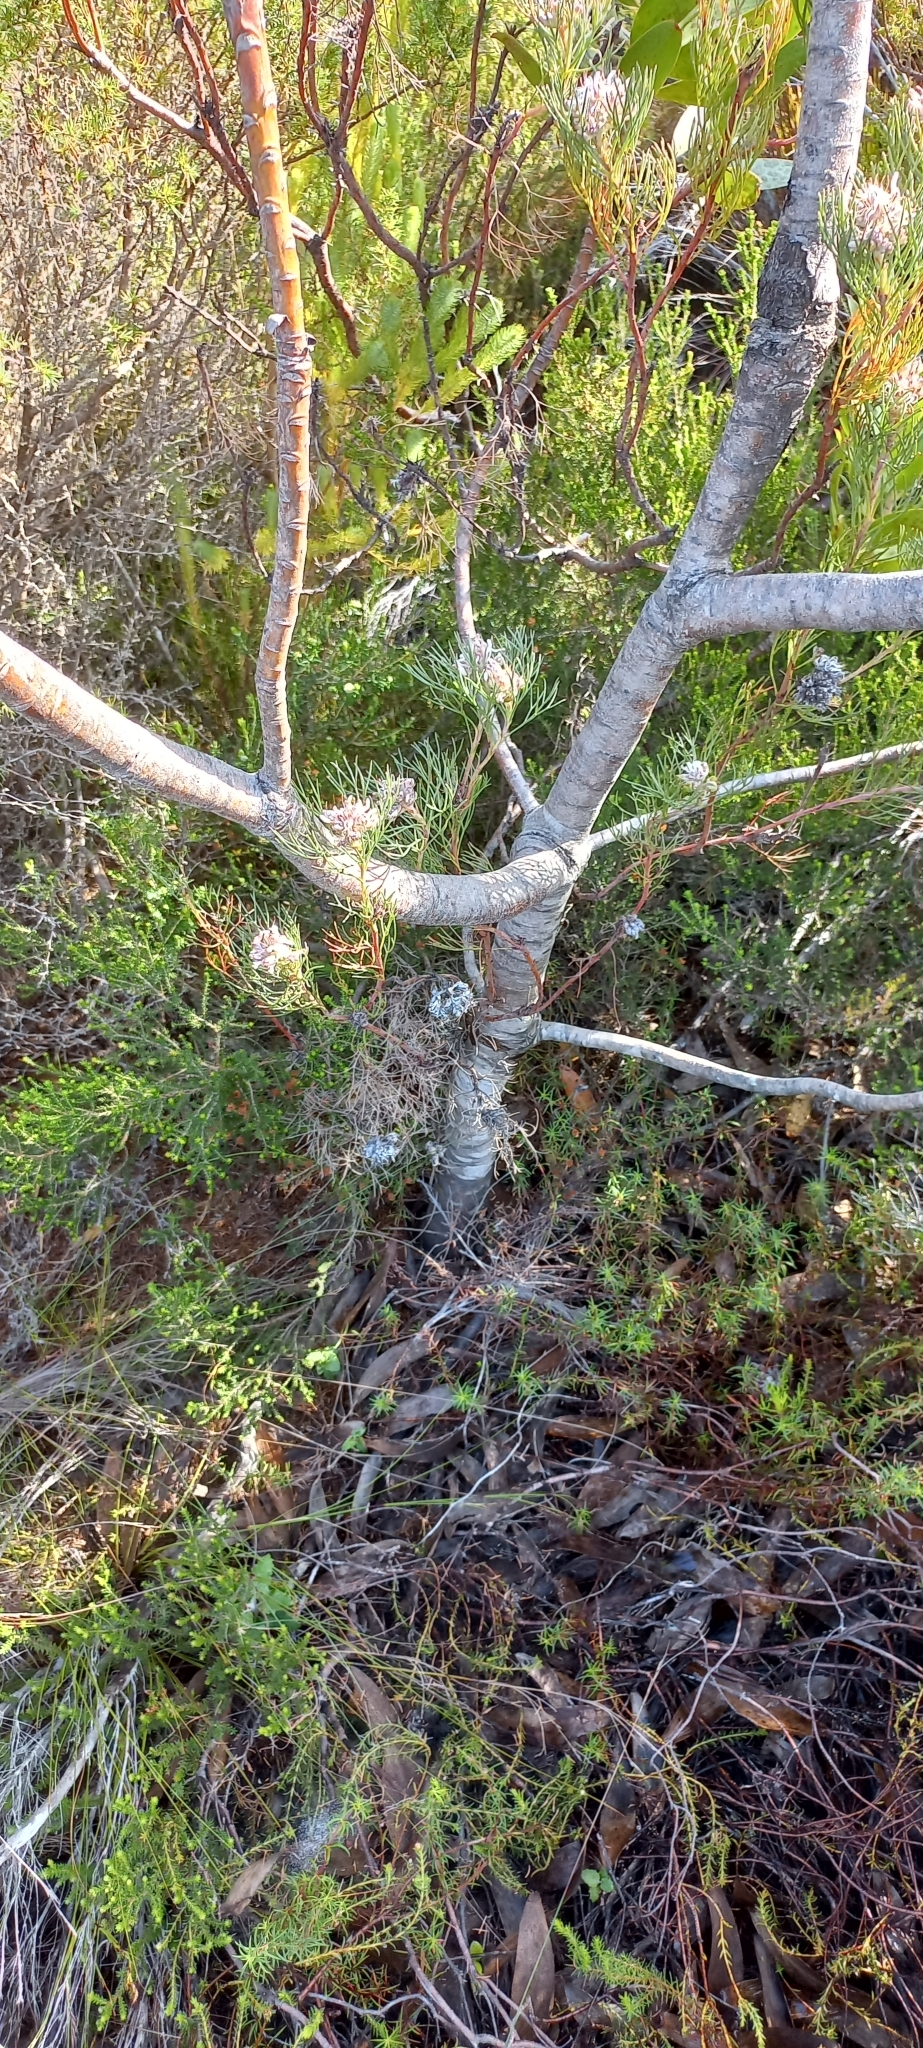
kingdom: Plantae
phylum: Tracheophyta
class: Magnoliopsida
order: Proteales
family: Proteaceae
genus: Leucadendron
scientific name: Leucadendron gandogeri
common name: Broad-leaf conebush
